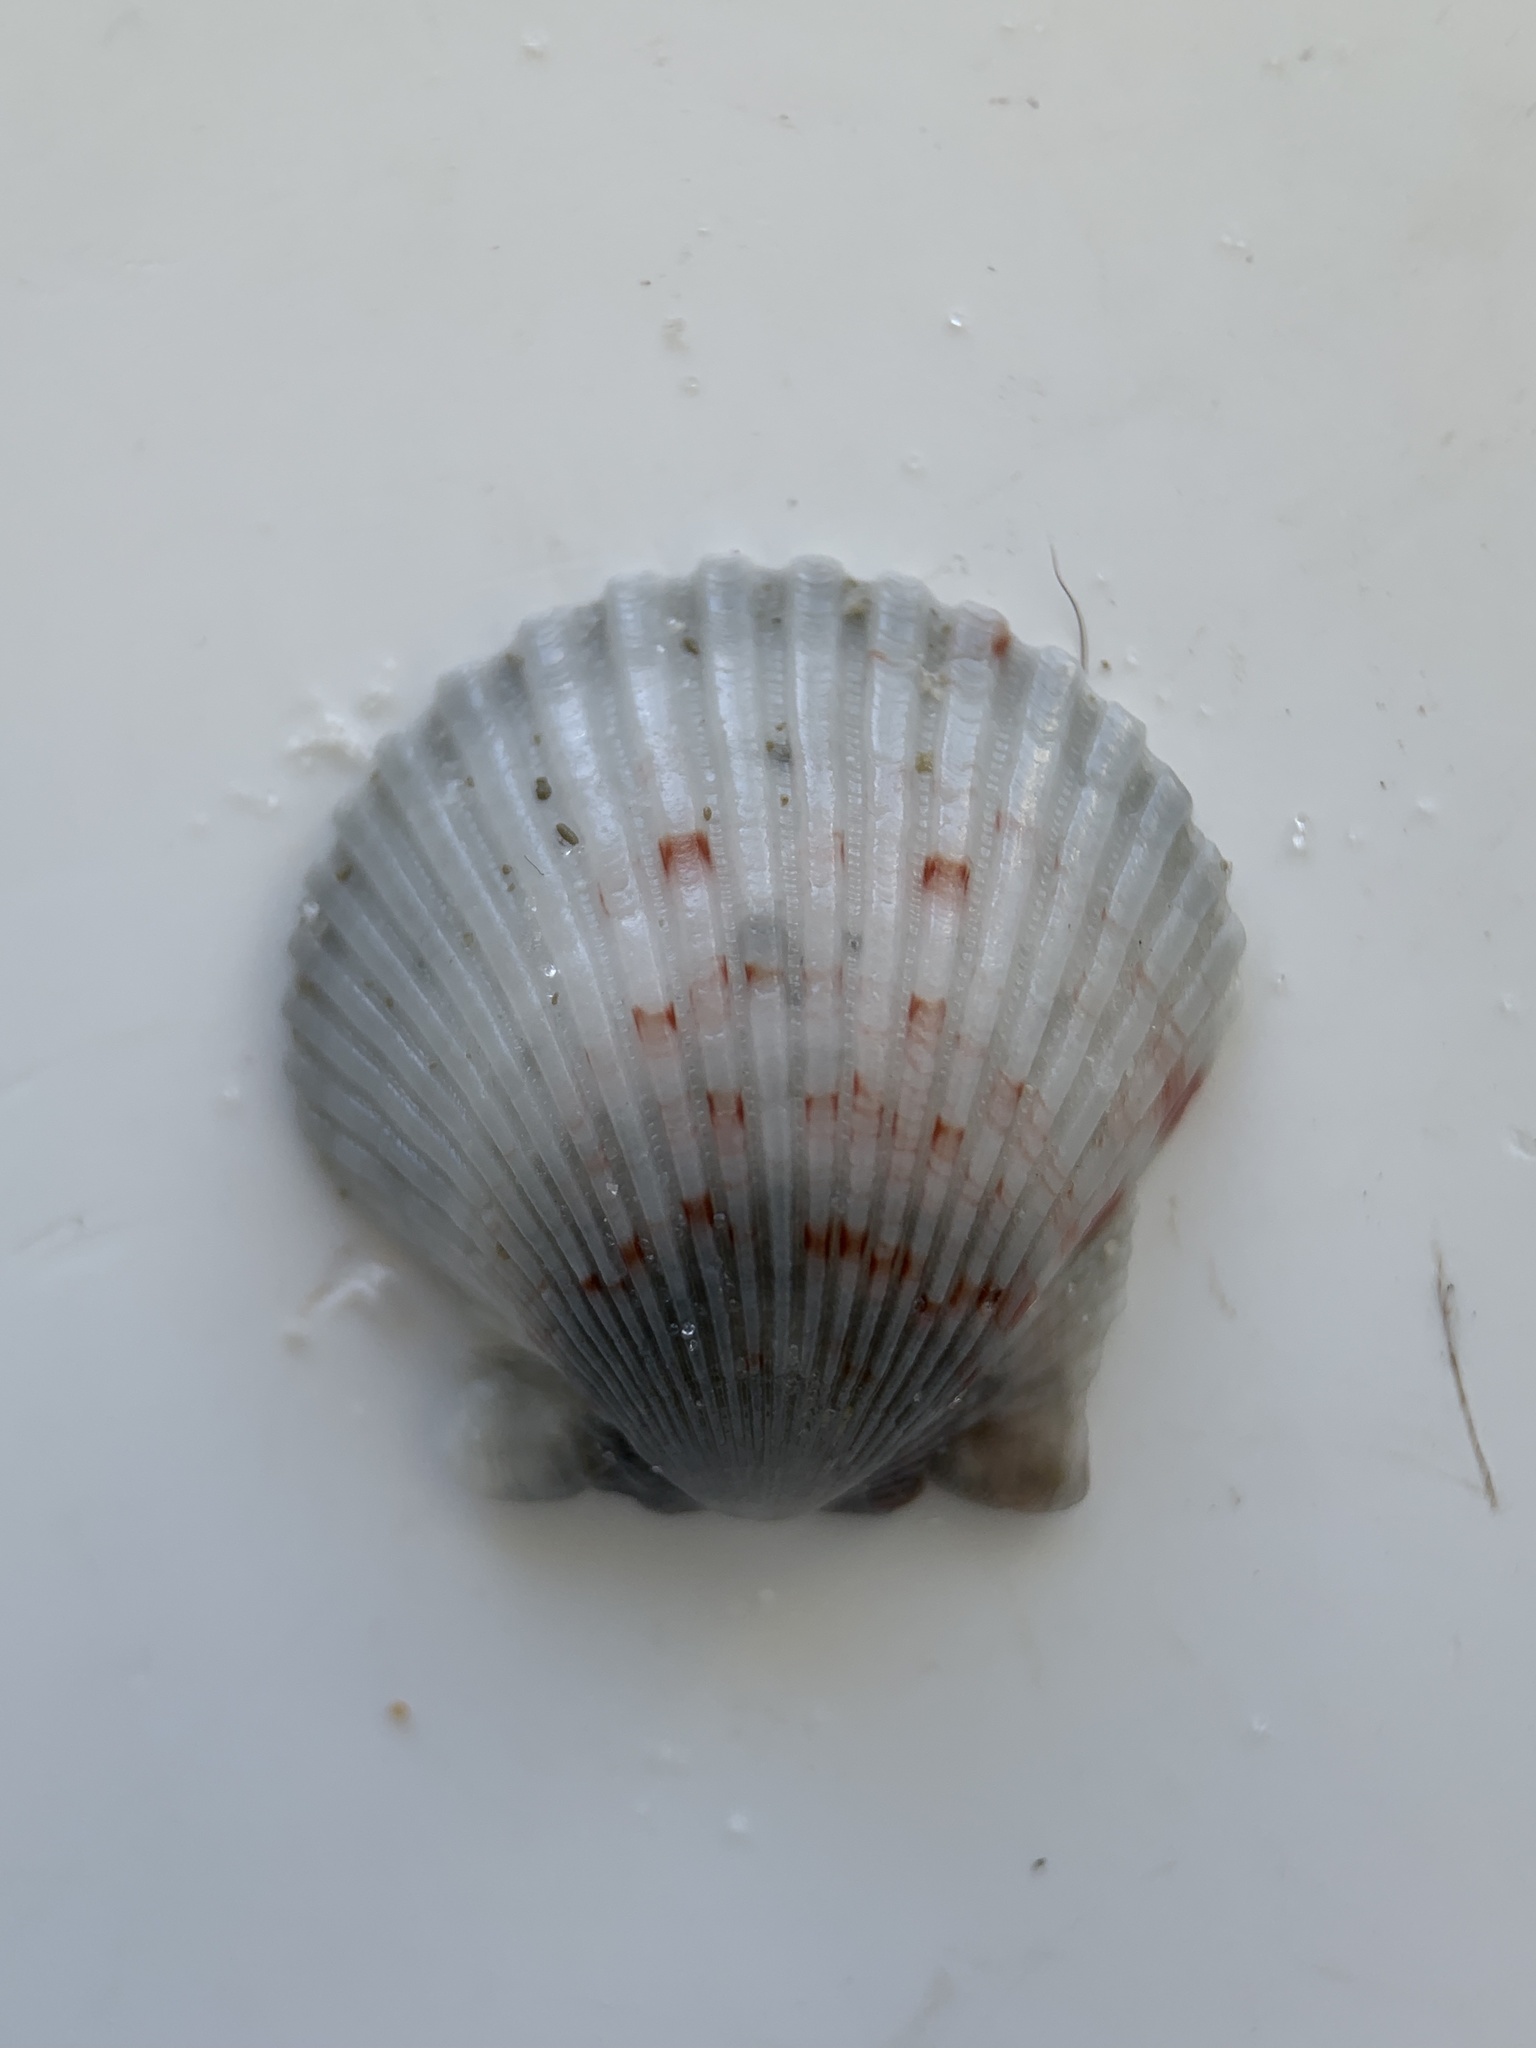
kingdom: Animalia
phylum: Mollusca
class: Bivalvia
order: Pectinida
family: Pectinidae
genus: Argopecten
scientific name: Argopecten gibbus
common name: Atlantic calico scallop
